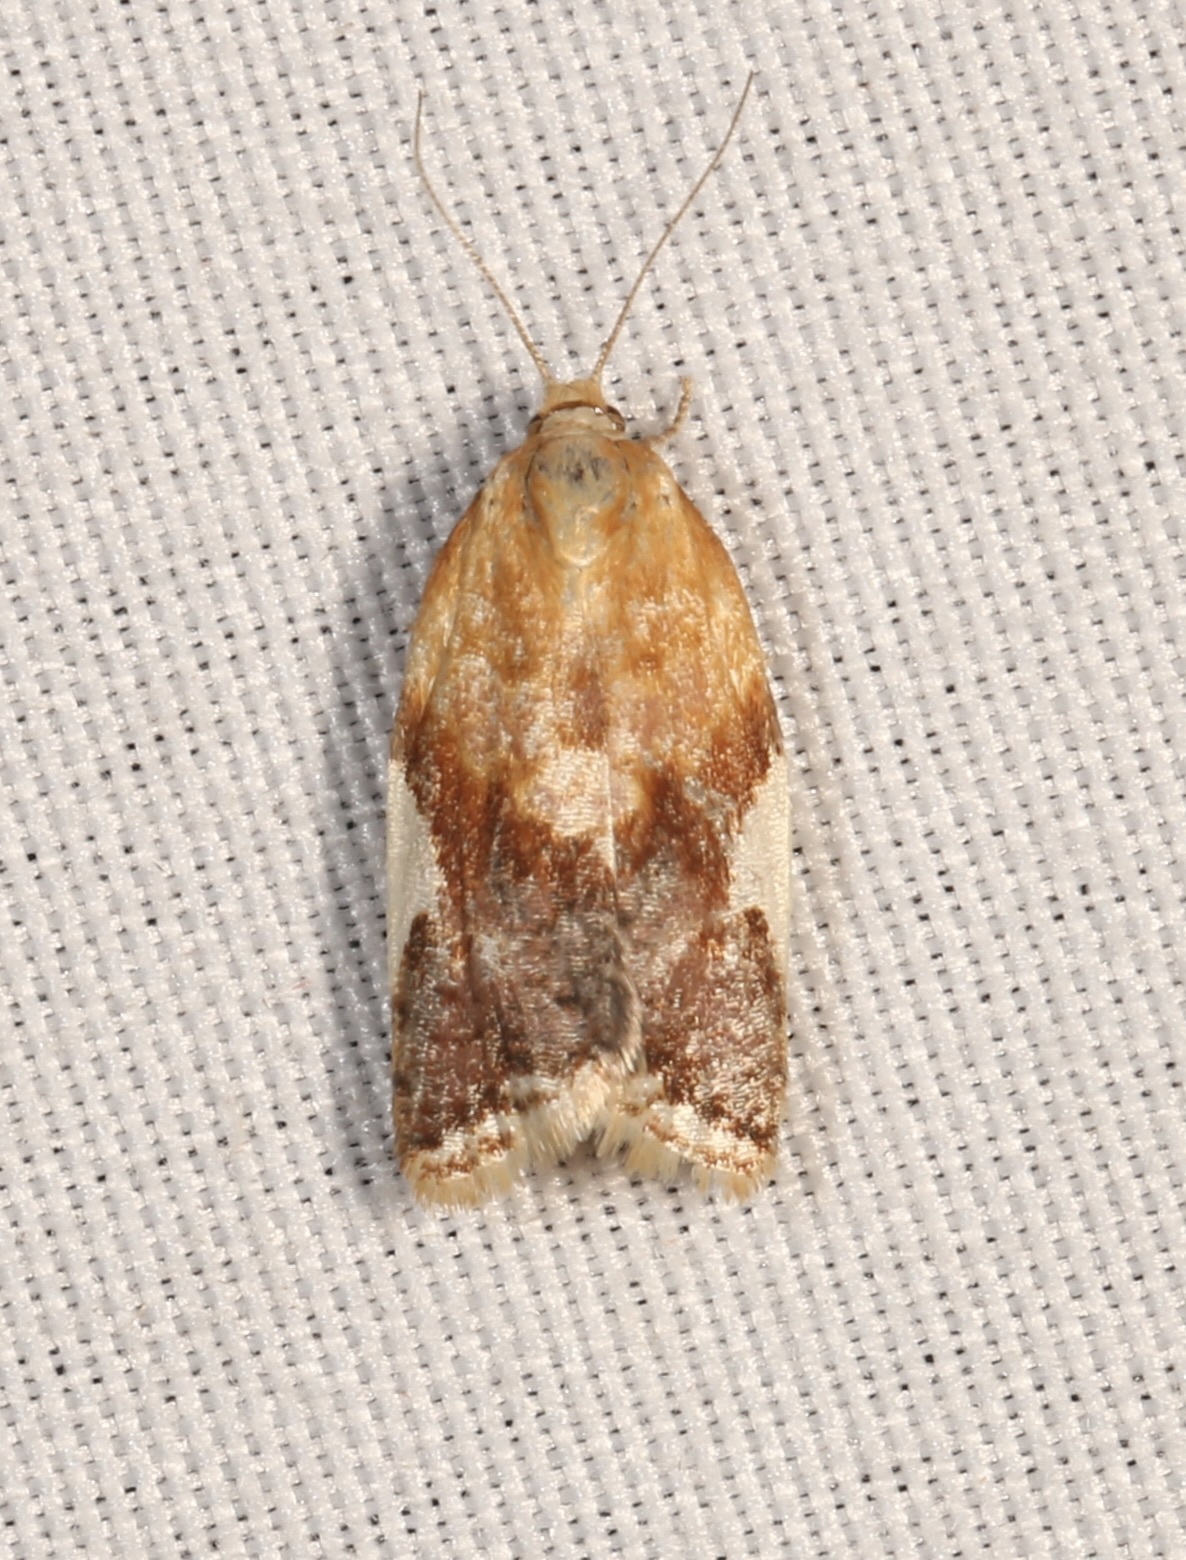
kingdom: Animalia
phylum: Arthropoda
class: Insecta
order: Lepidoptera
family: Tortricidae
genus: Clepsis
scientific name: Clepsis persicana
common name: White triangle tortrix
